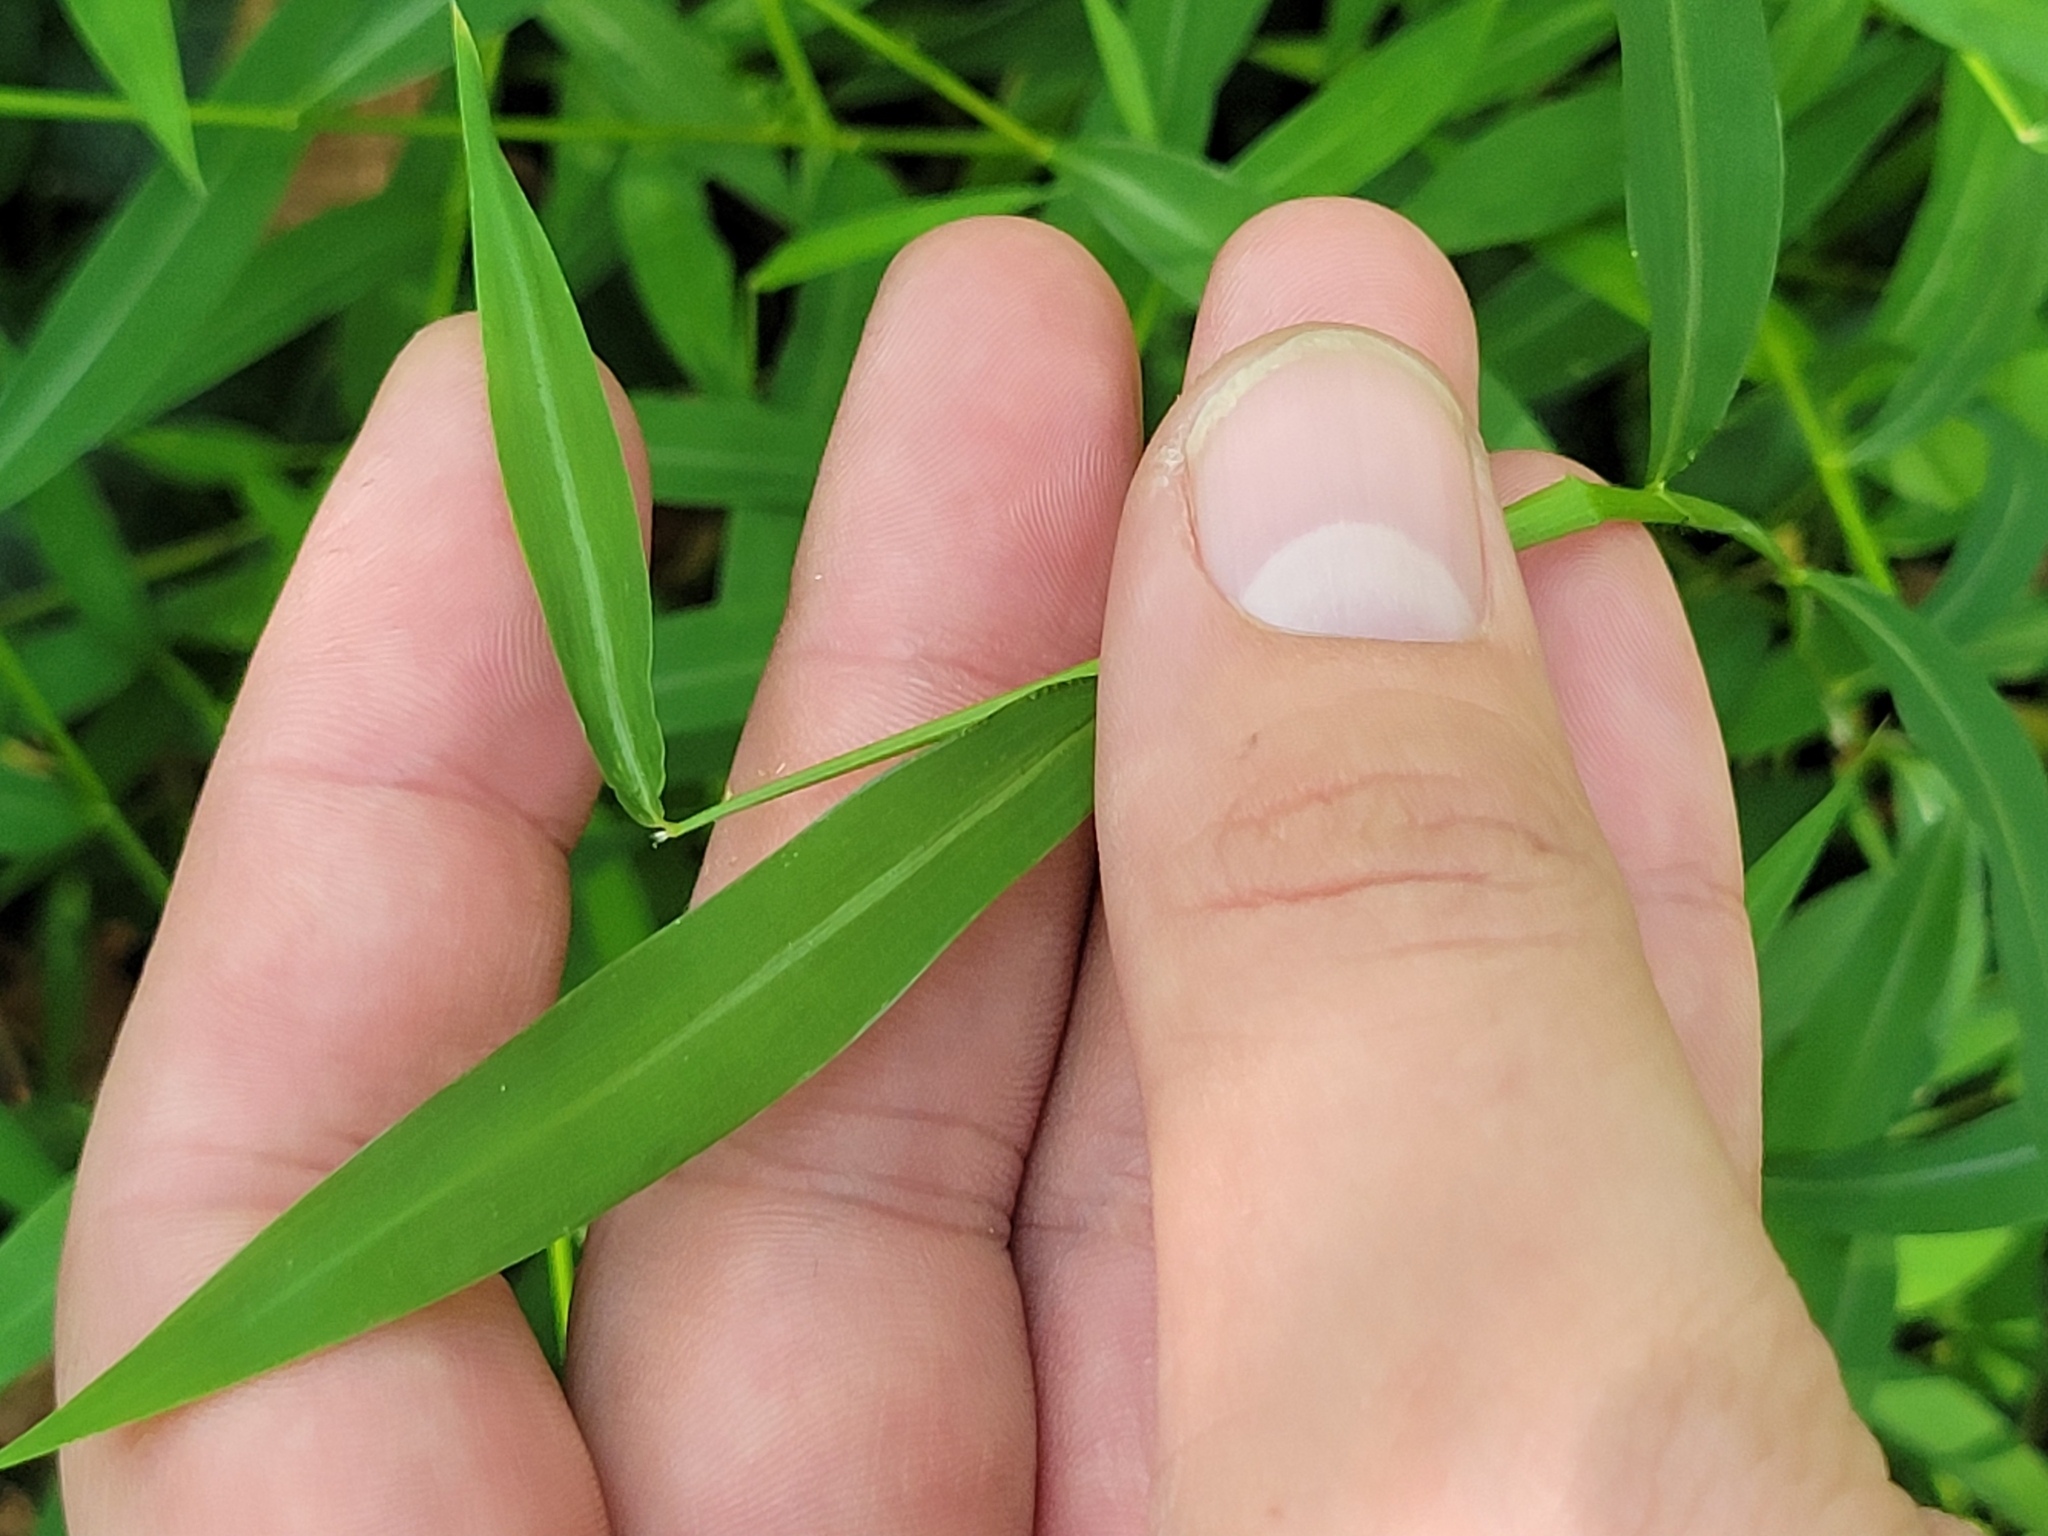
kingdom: Plantae
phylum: Tracheophyta
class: Liliopsida
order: Poales
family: Poaceae
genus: Microstegium
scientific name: Microstegium vimineum
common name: Japanese stiltgrass
